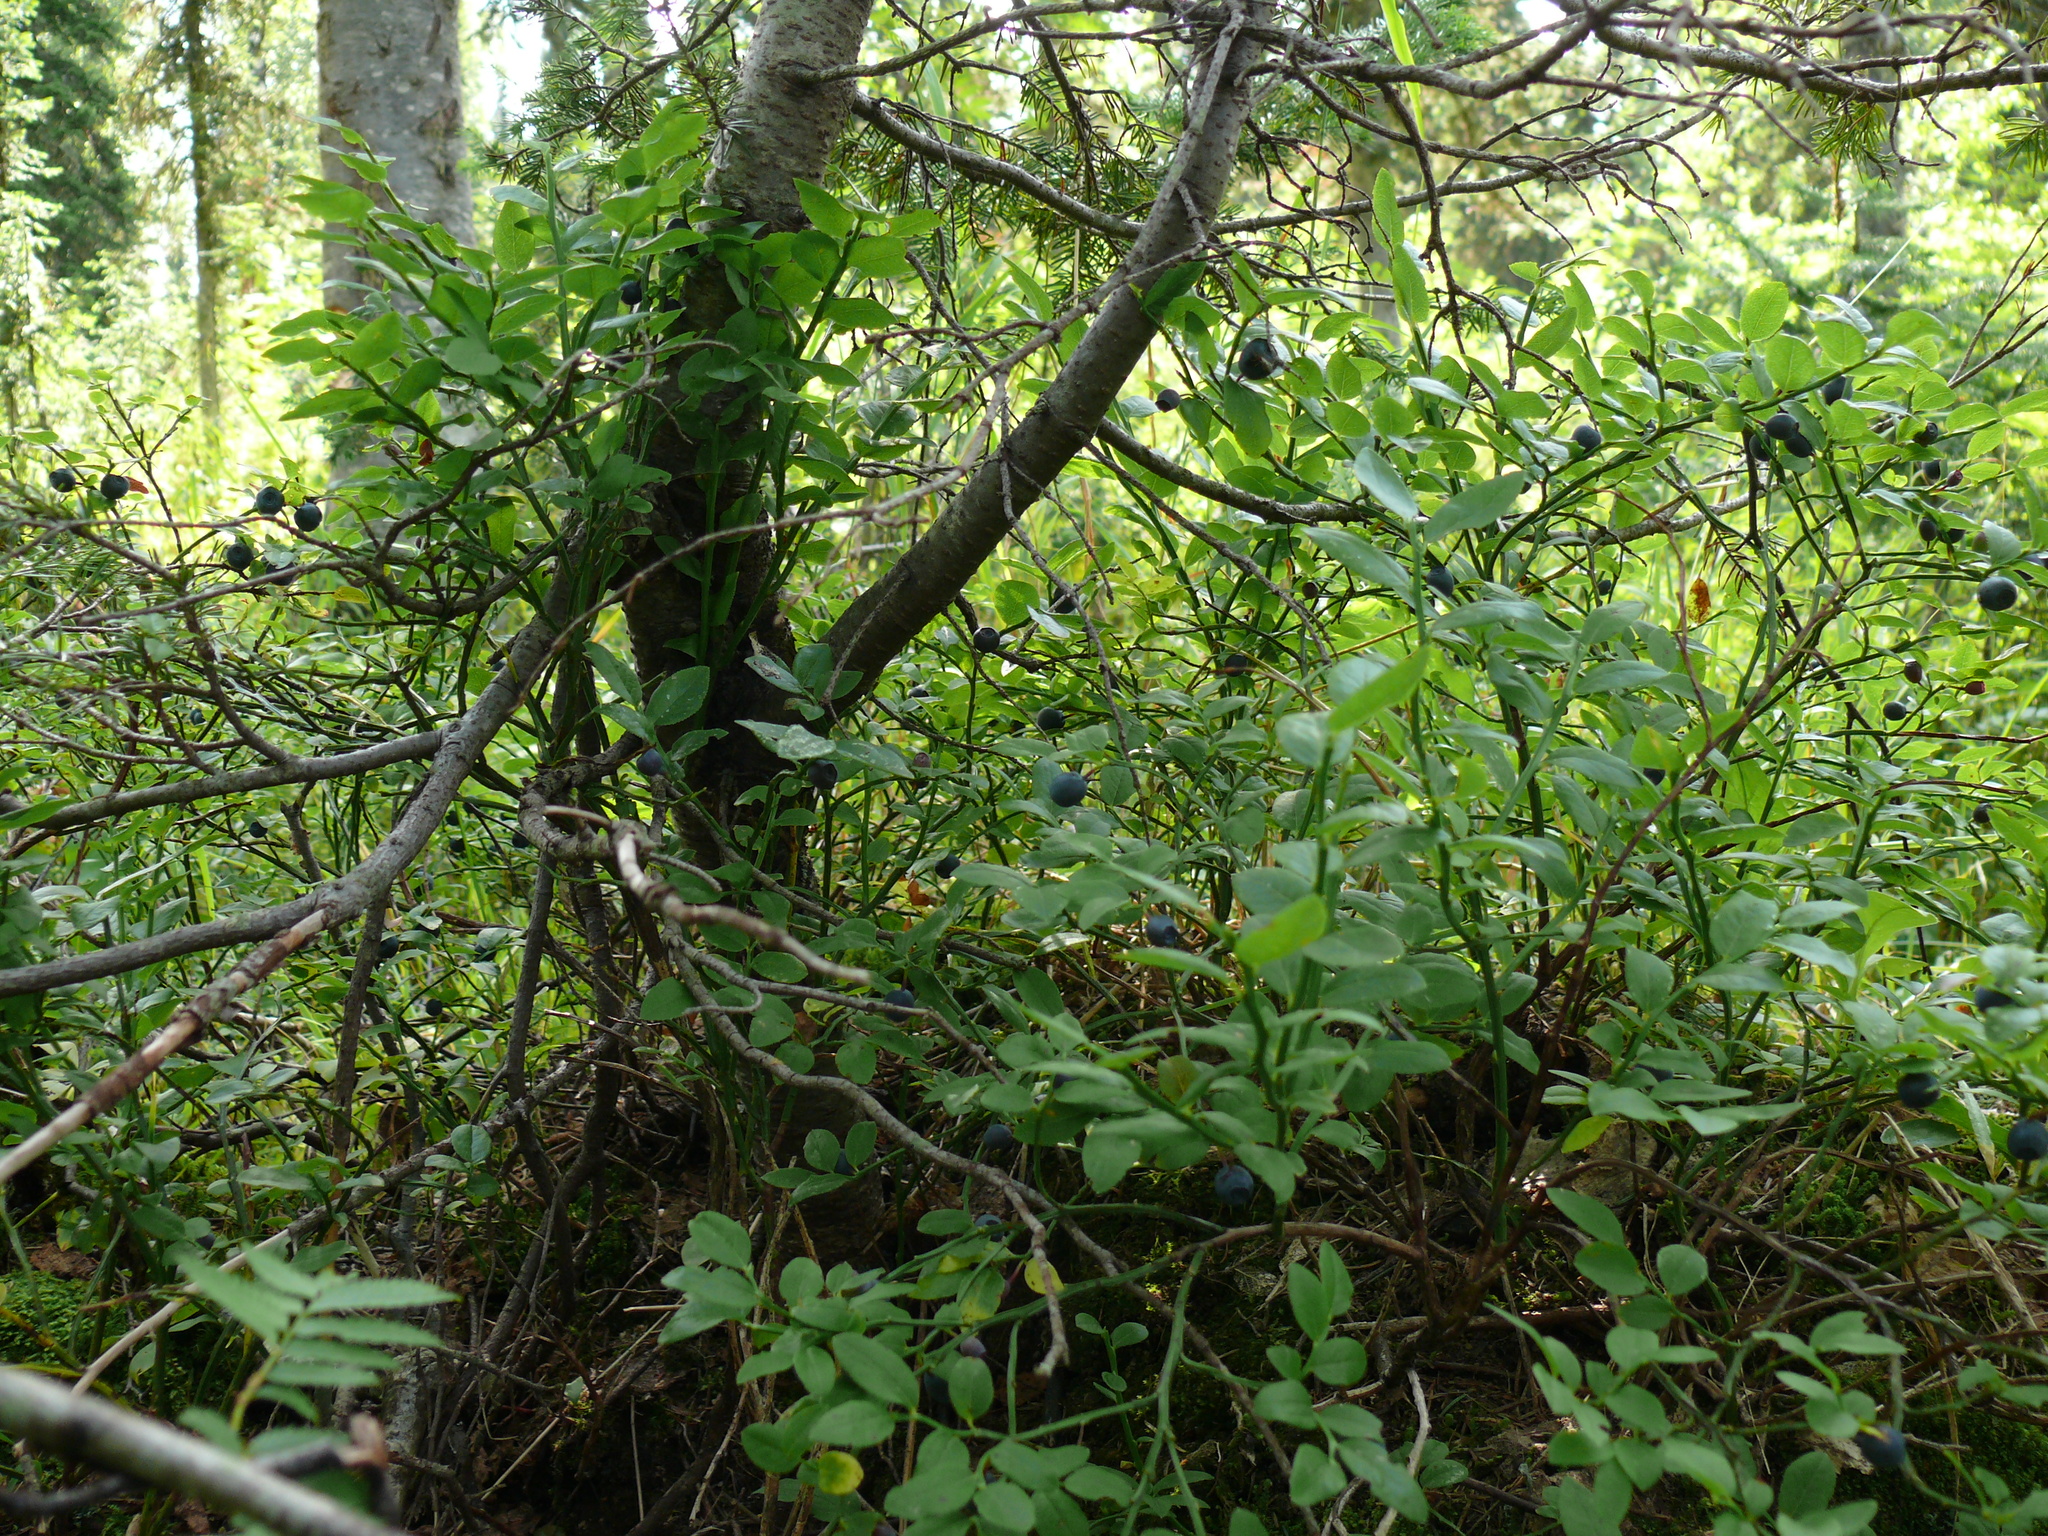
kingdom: Plantae
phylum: Tracheophyta
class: Magnoliopsida
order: Ericales
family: Ericaceae
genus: Vaccinium
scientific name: Vaccinium myrtillus
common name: Bilberry
